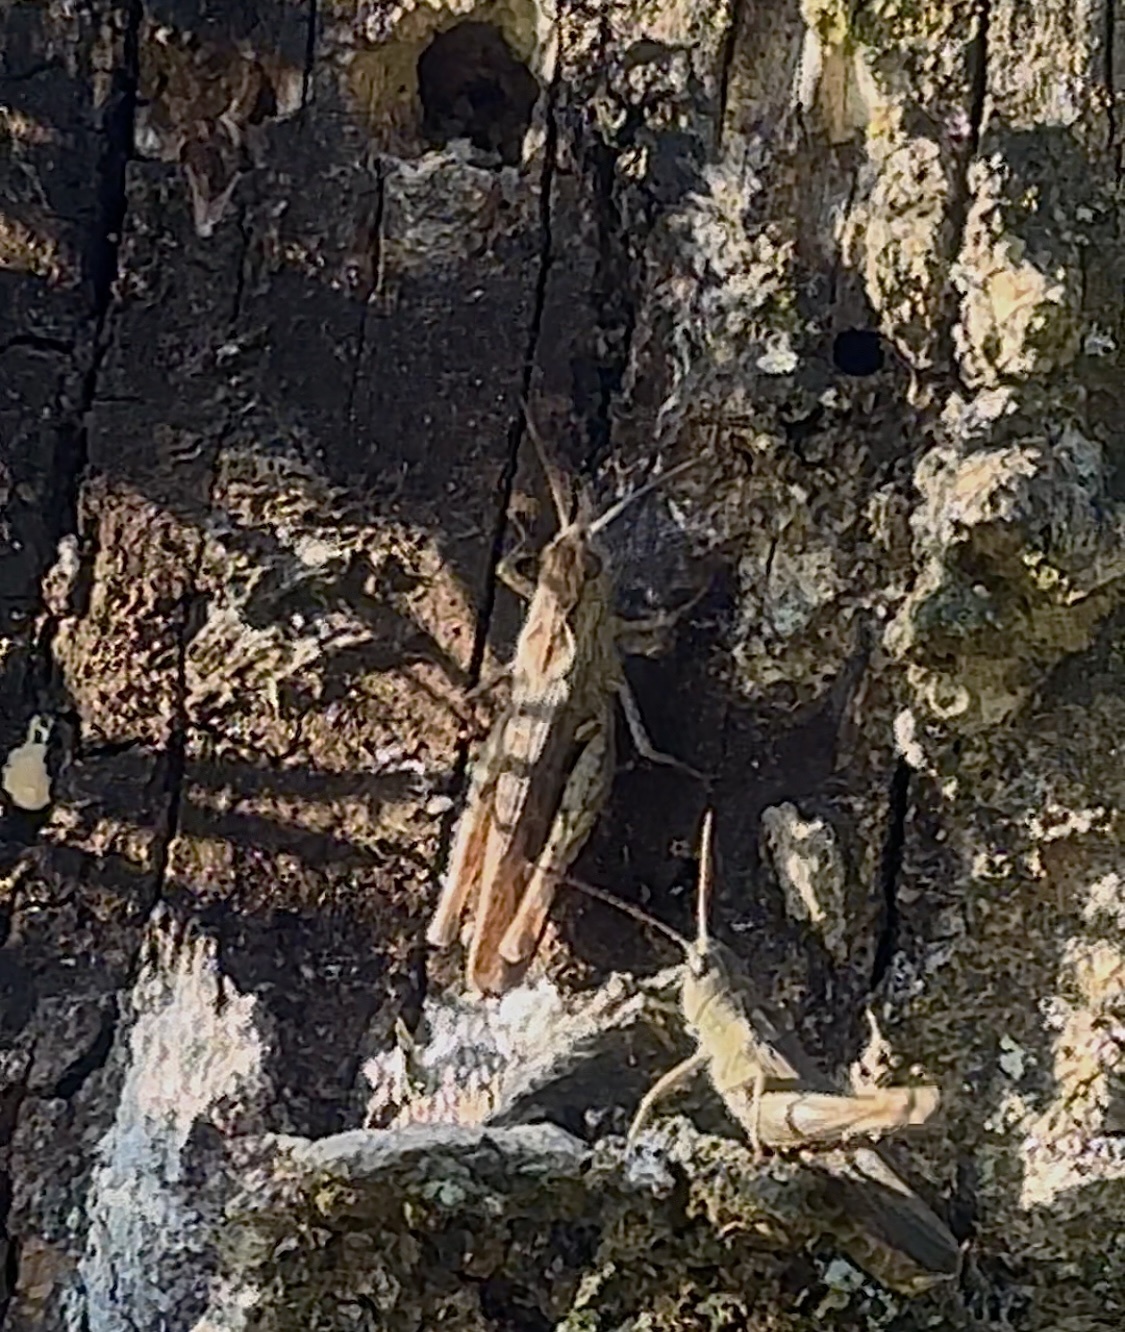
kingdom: Animalia
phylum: Arthropoda
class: Insecta
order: Orthoptera
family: Acrididae
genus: Chorthippus
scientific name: Chorthippus biguttulus
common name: Bow-winged grasshopper
